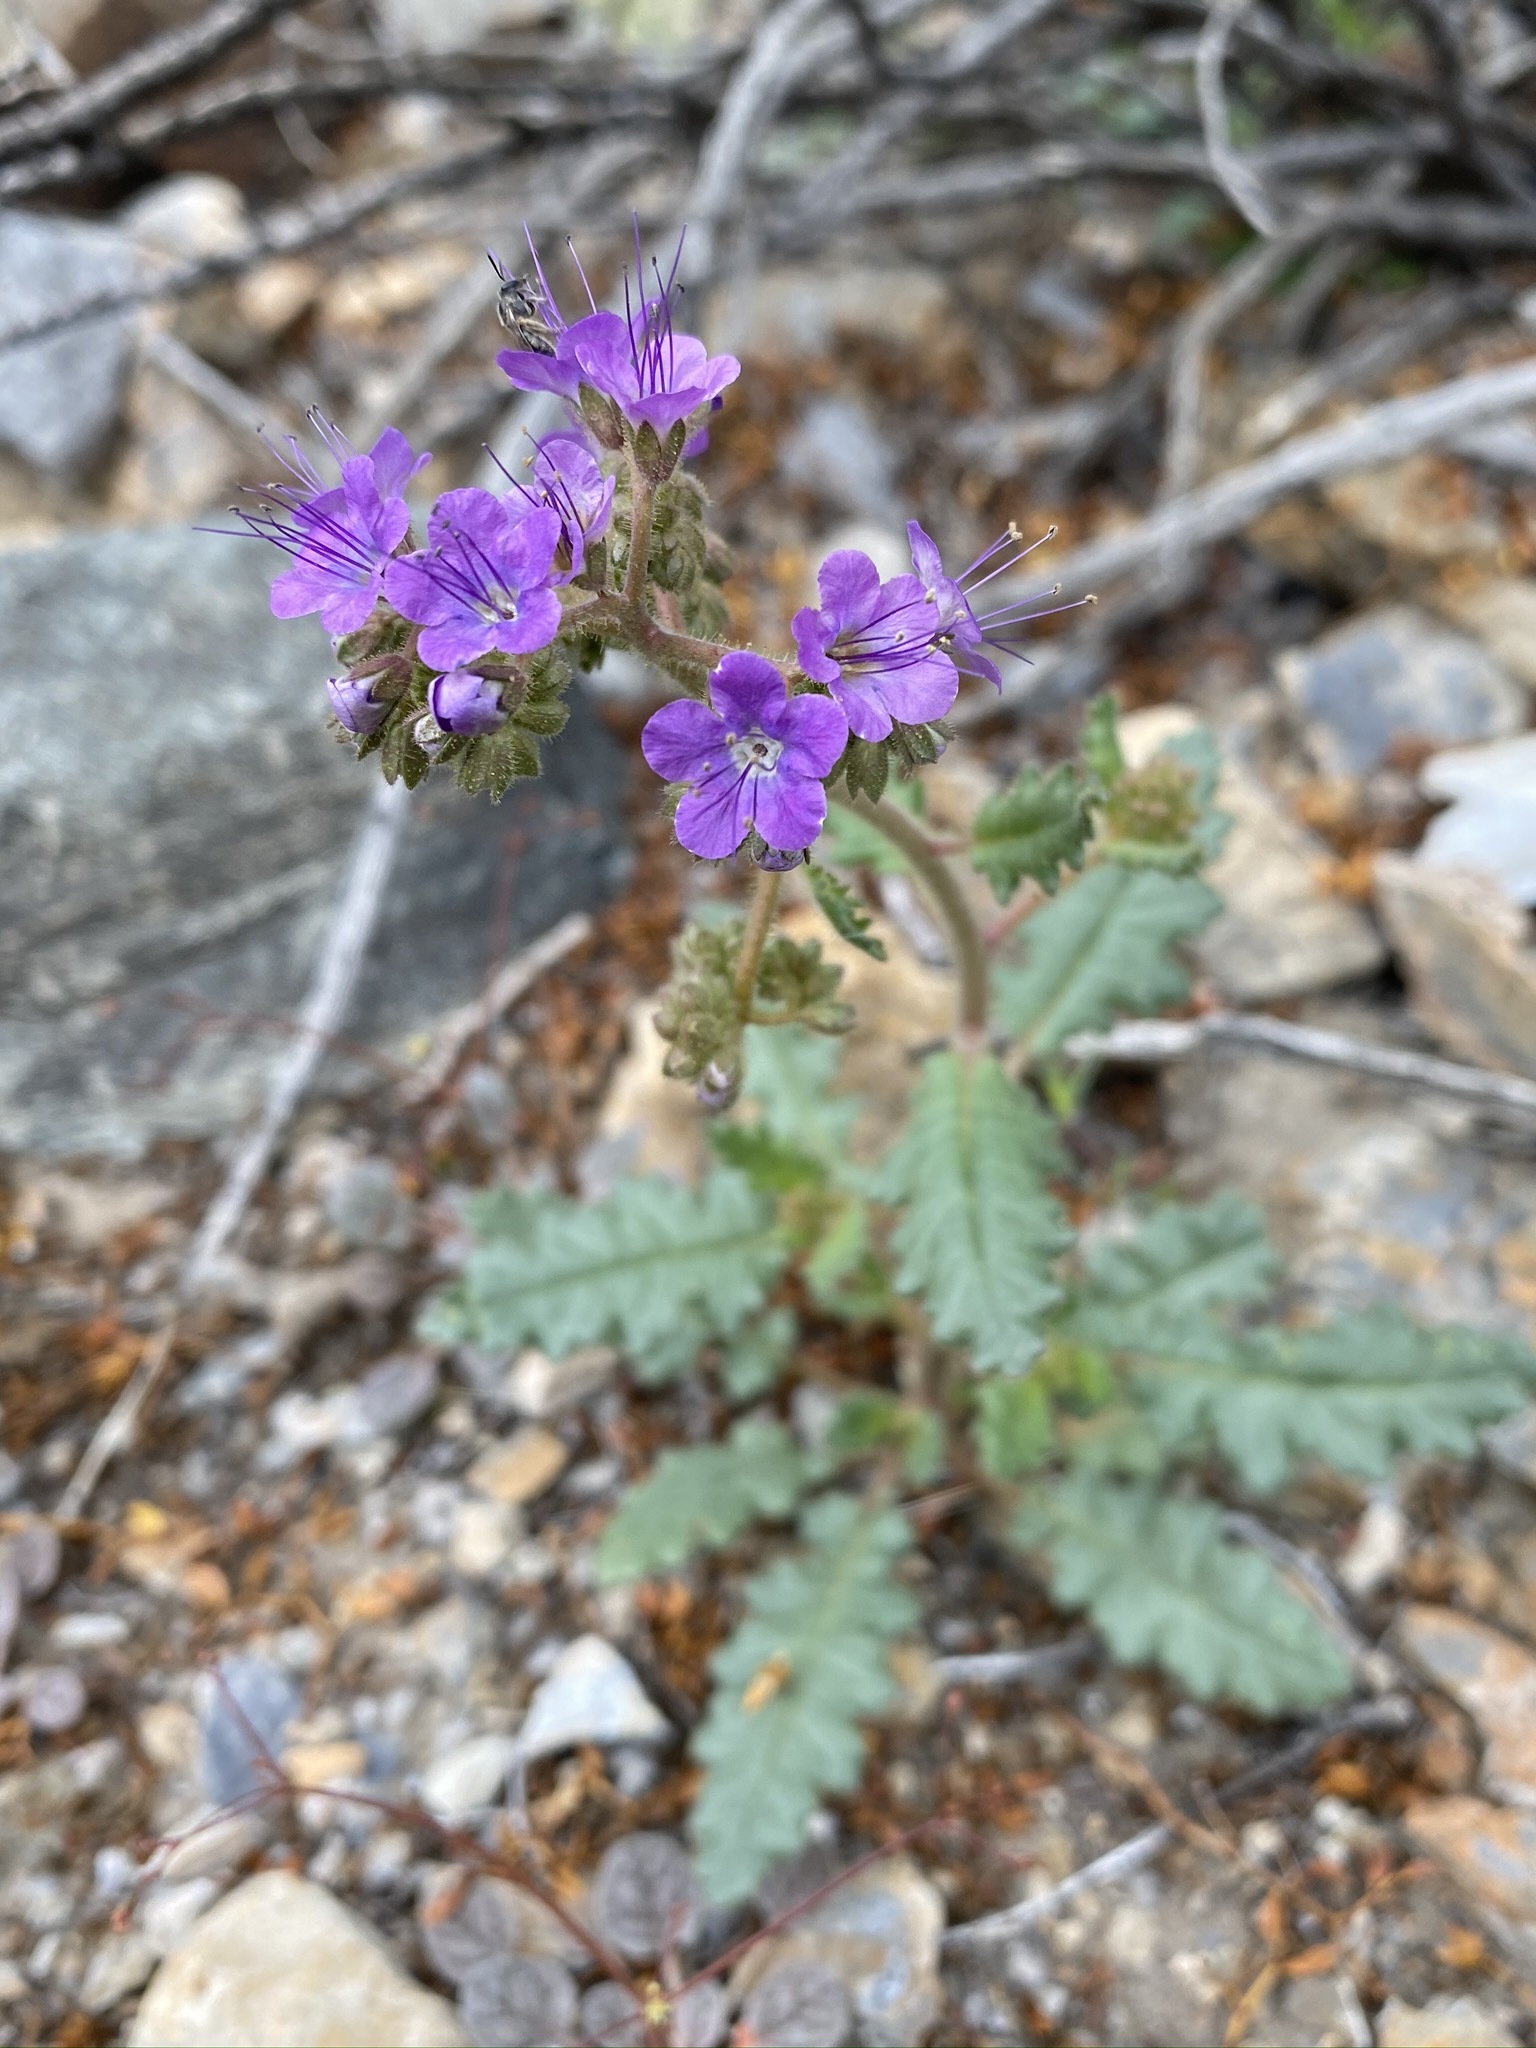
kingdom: Plantae
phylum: Tracheophyta
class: Magnoliopsida
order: Boraginales
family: Hydrophyllaceae
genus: Phacelia
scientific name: Phacelia crenulata
